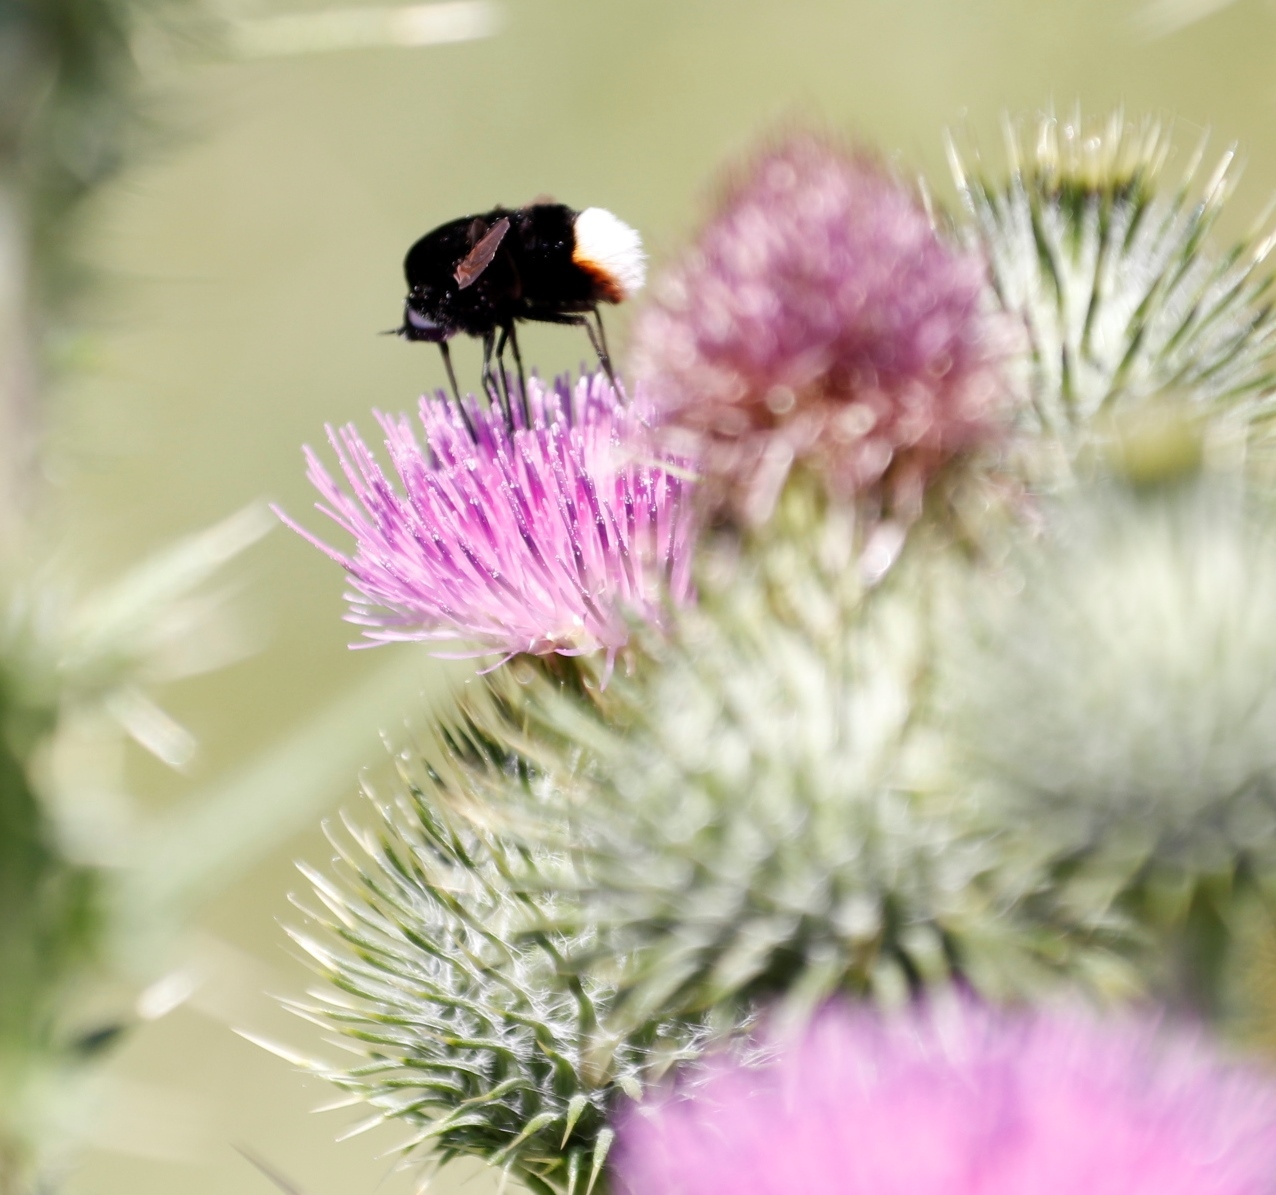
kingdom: Animalia
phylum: Arthropoda
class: Insecta
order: Diptera
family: Bombyliidae
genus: Bombomyia
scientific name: Bombomyia discoidea
